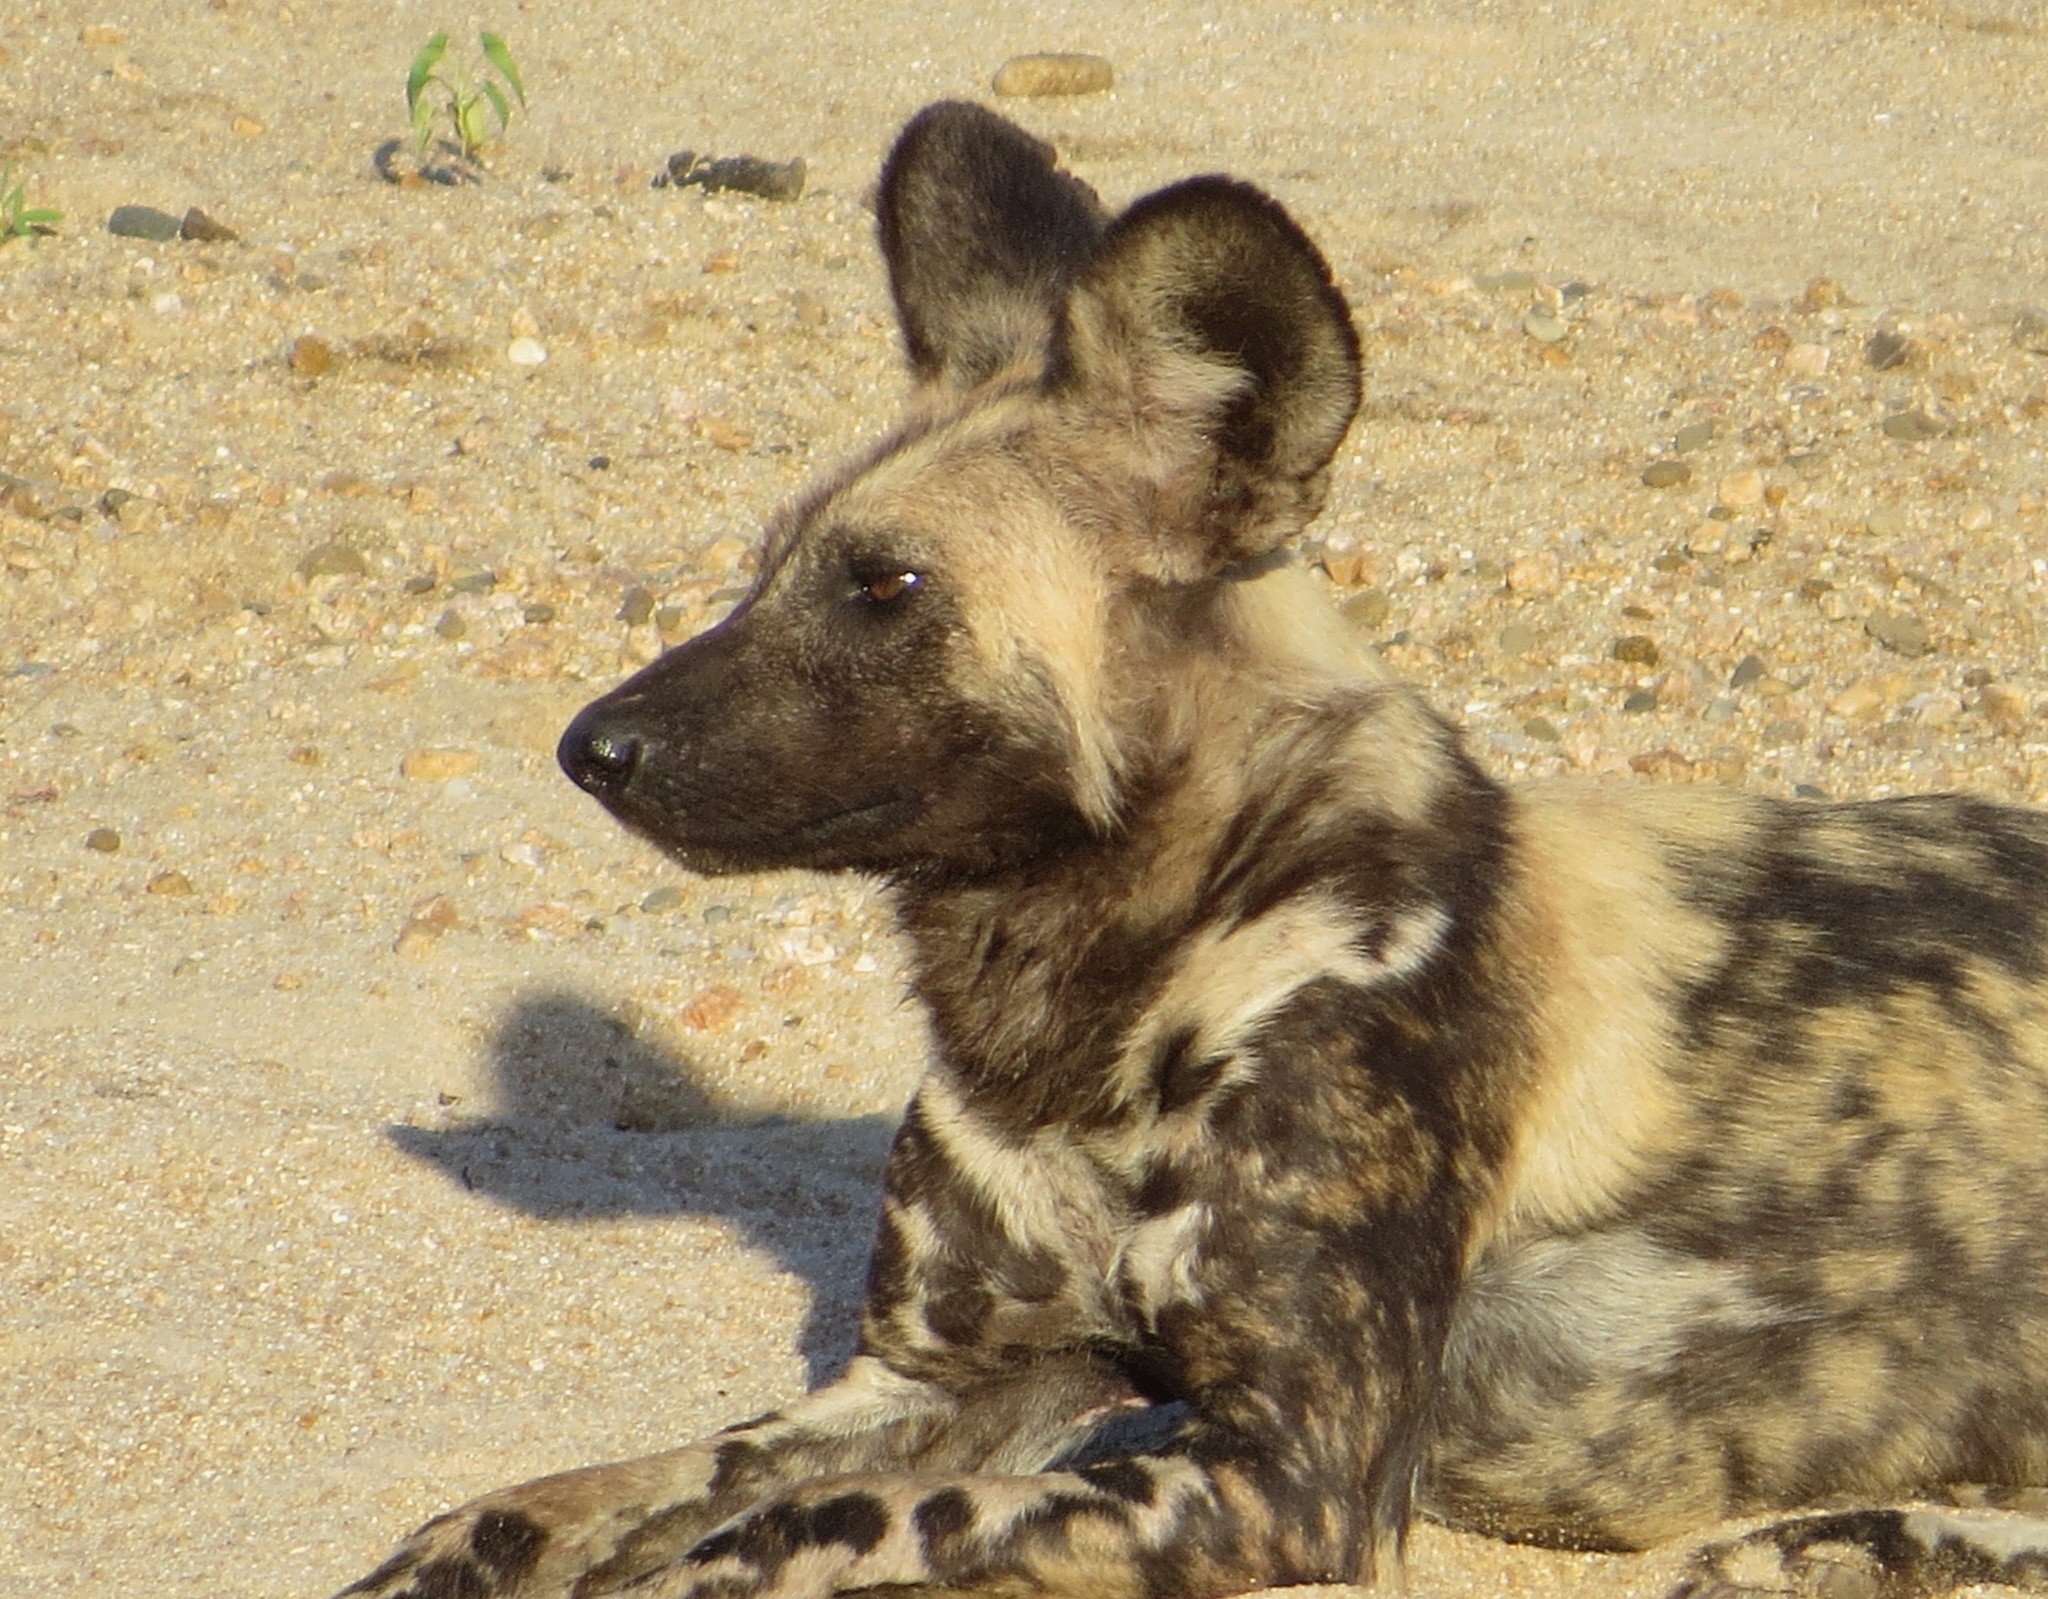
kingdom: Animalia
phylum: Chordata
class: Mammalia
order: Carnivora
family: Canidae
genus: Lycaon
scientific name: Lycaon pictus
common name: African wild dog
